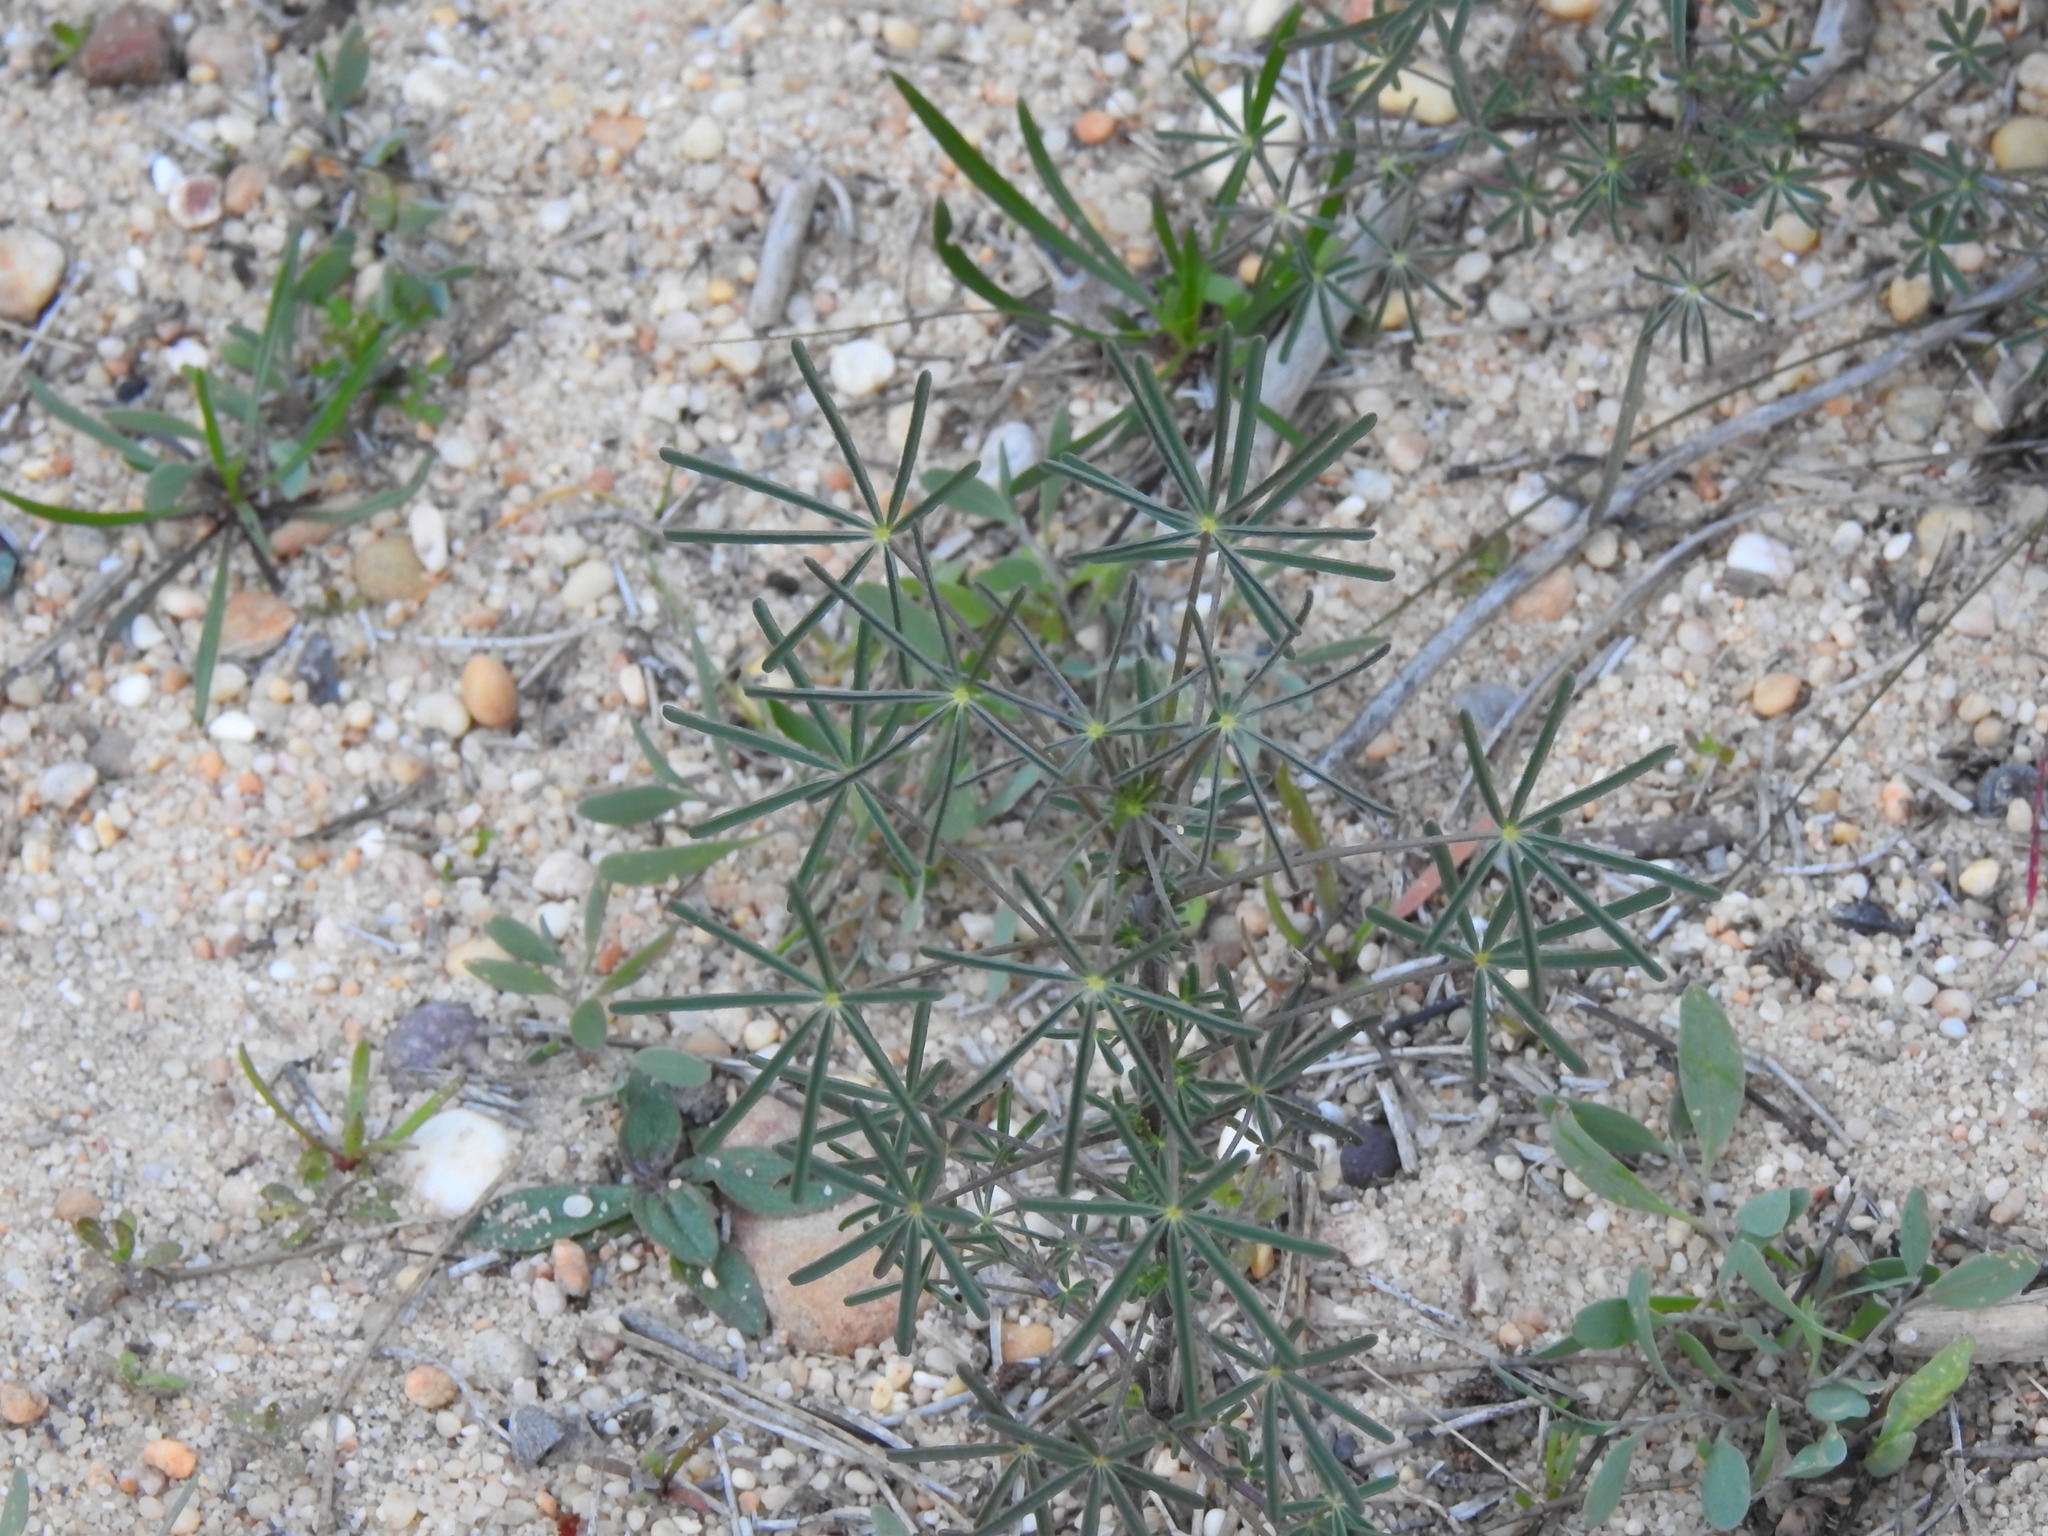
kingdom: Plantae
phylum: Tracheophyta
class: Magnoliopsida
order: Fabales
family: Fabaceae
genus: Lupinus
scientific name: Lupinus angustifolius
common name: Narrow-leaved lupin
